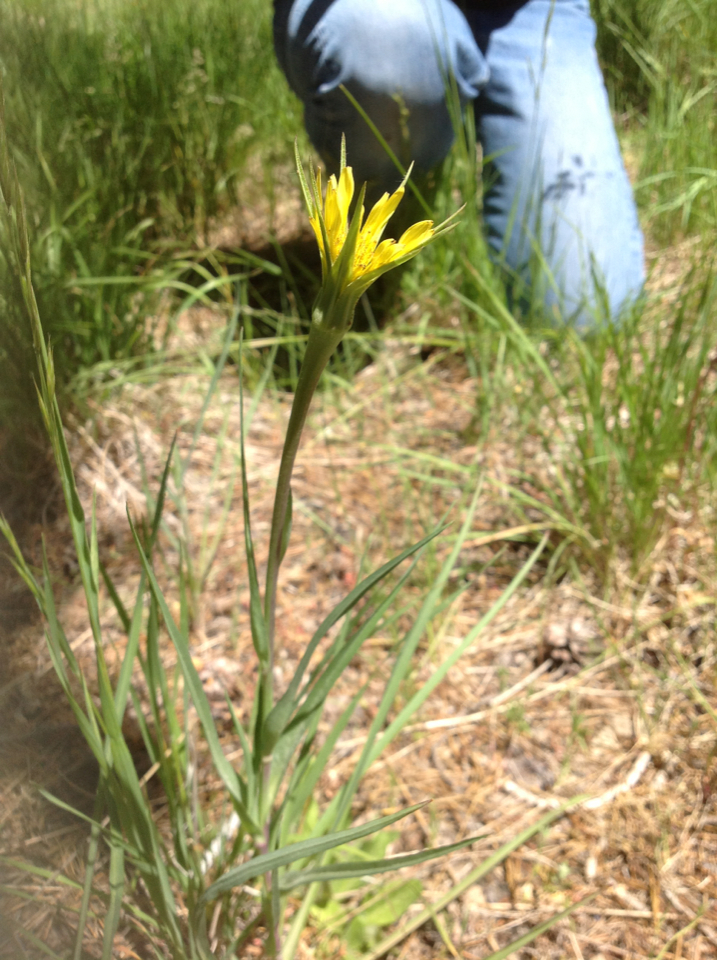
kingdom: Plantae
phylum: Tracheophyta
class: Magnoliopsida
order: Asterales
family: Asteraceae
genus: Tragopogon
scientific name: Tragopogon dubius
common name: Yellow salsify
